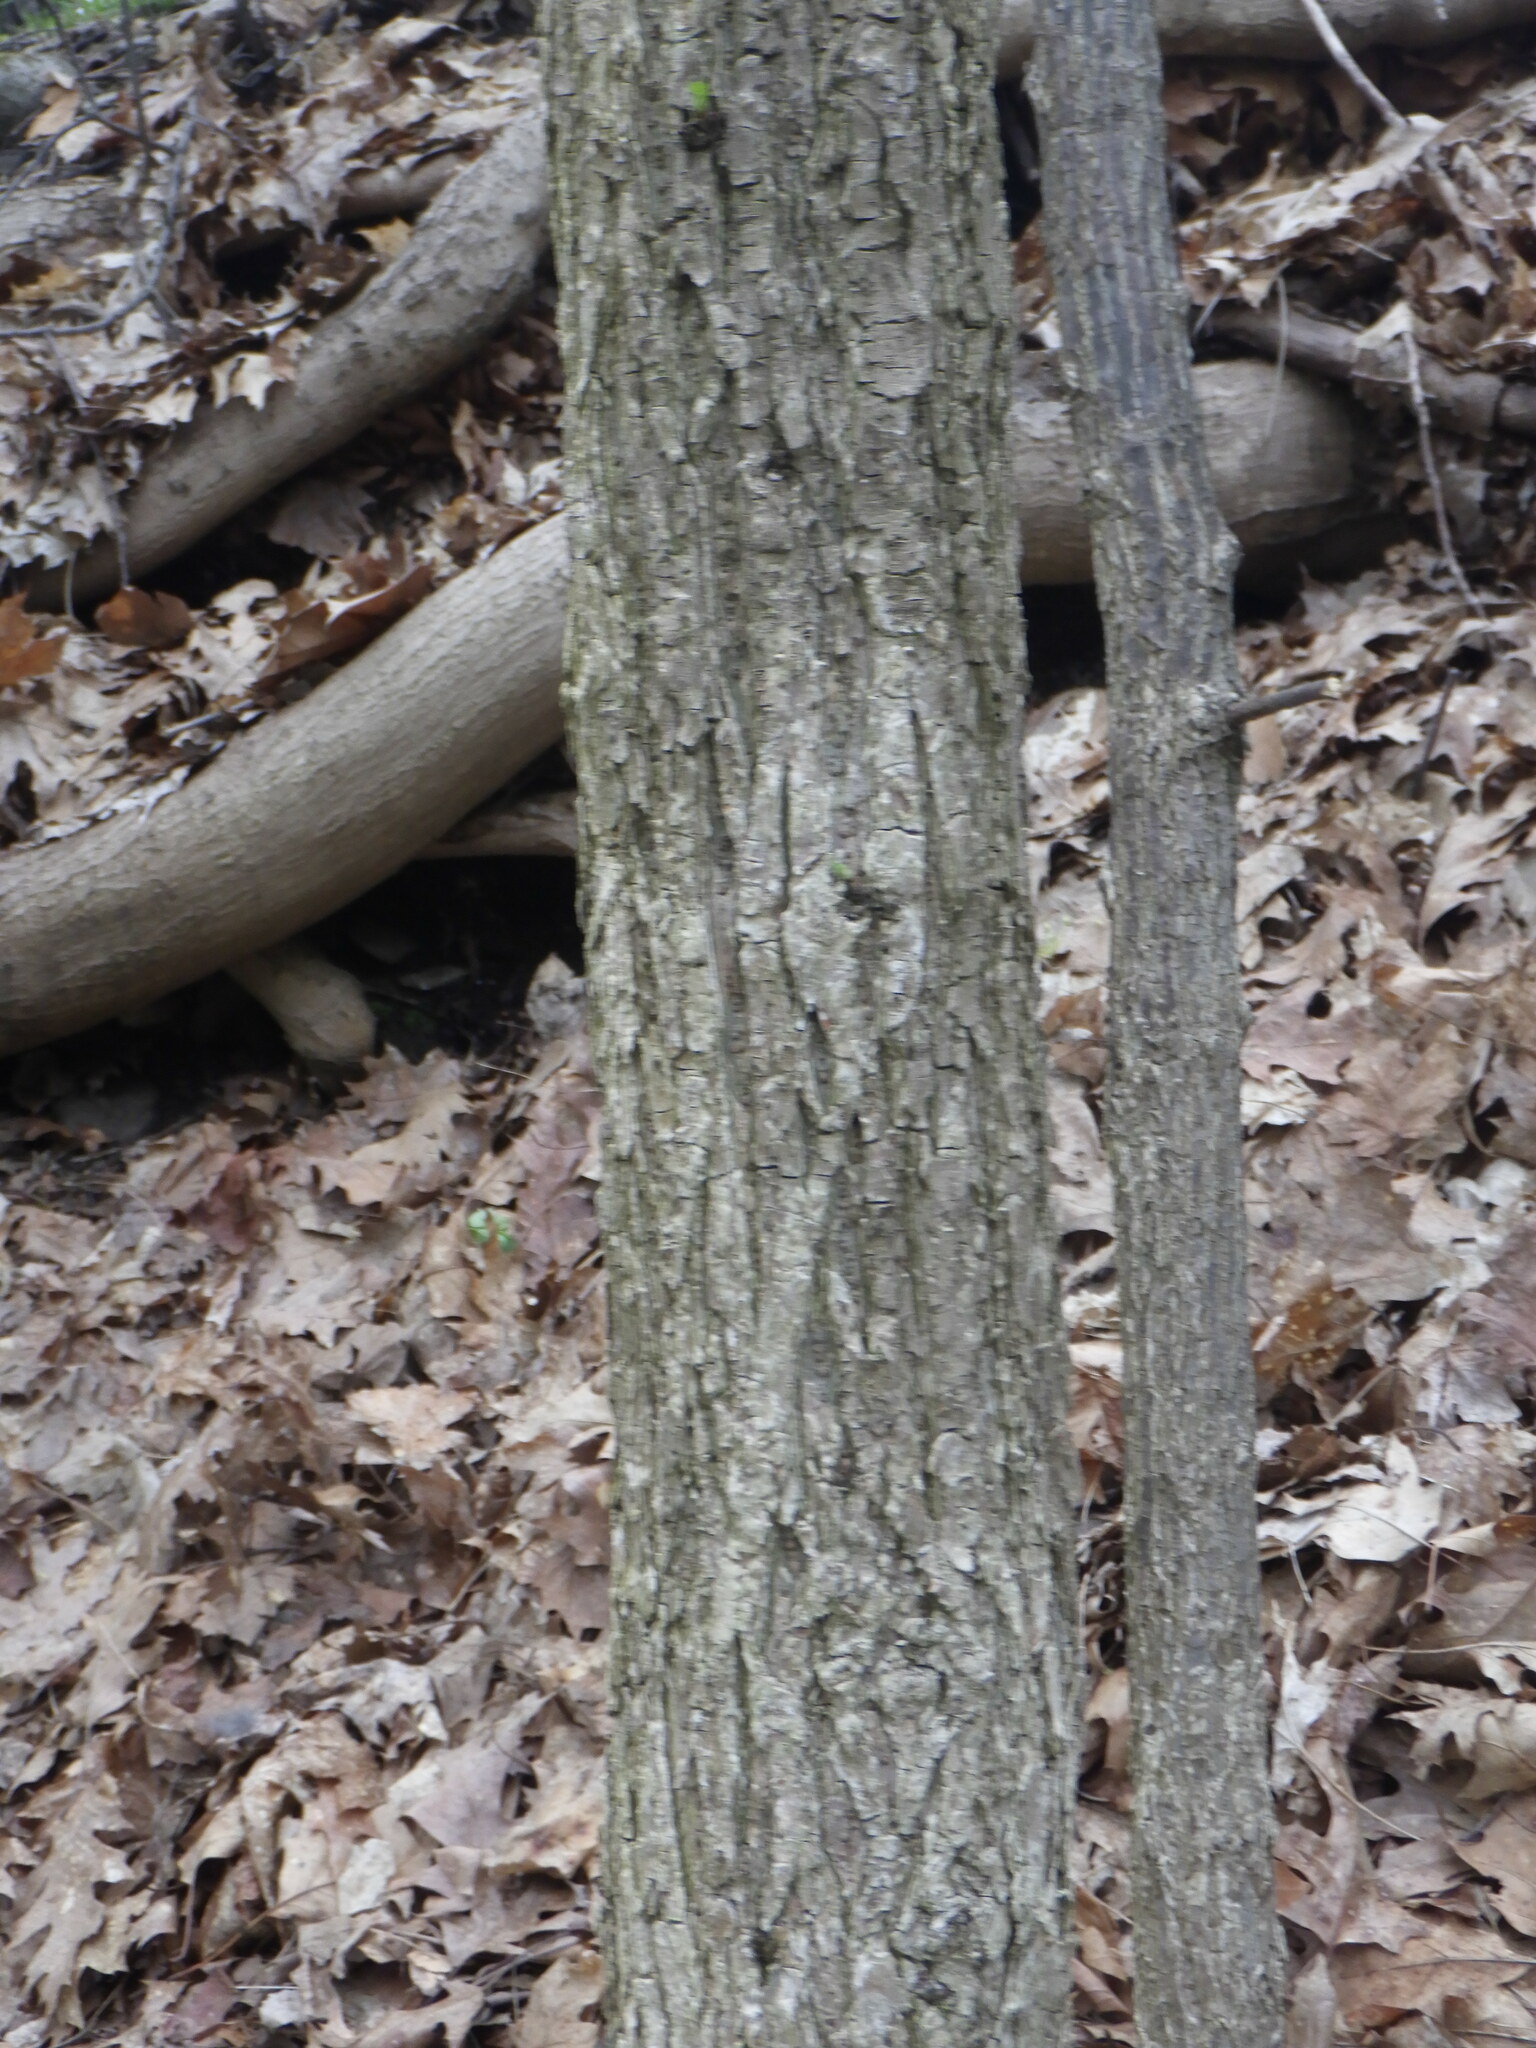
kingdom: Plantae
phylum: Tracheophyta
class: Magnoliopsida
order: Rosales
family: Ulmaceae
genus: Ulmus
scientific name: Ulmus americana
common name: American elm
